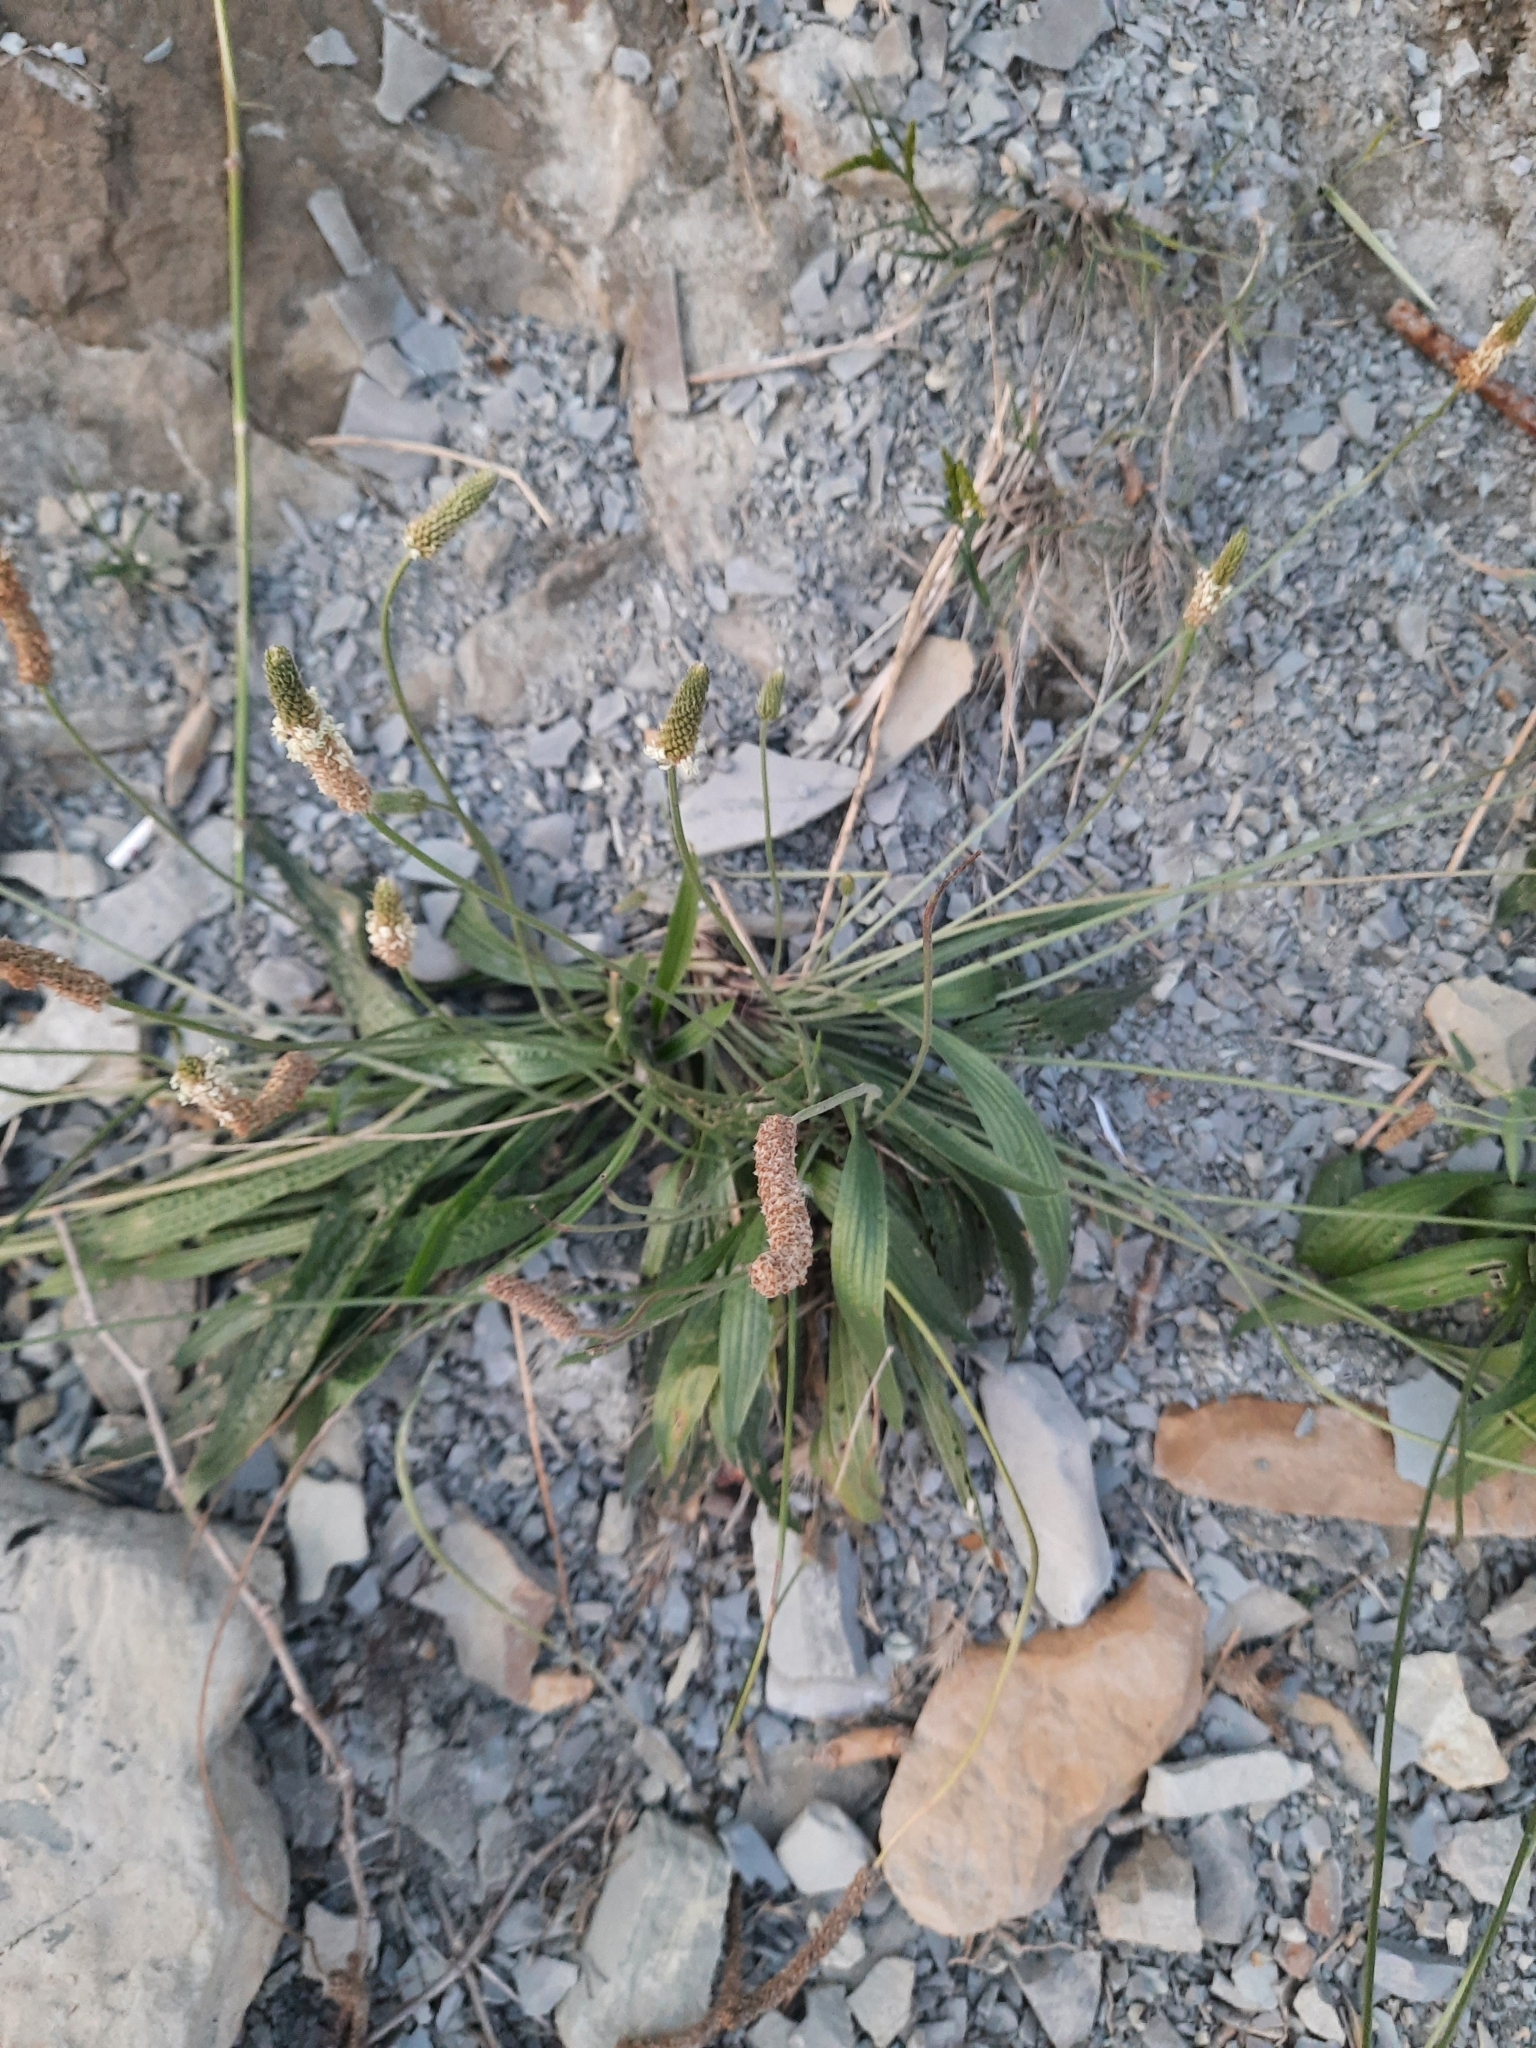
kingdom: Plantae
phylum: Tracheophyta
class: Magnoliopsida
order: Lamiales
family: Plantaginaceae
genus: Plantago
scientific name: Plantago lanceolata
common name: Ribwort plantain
